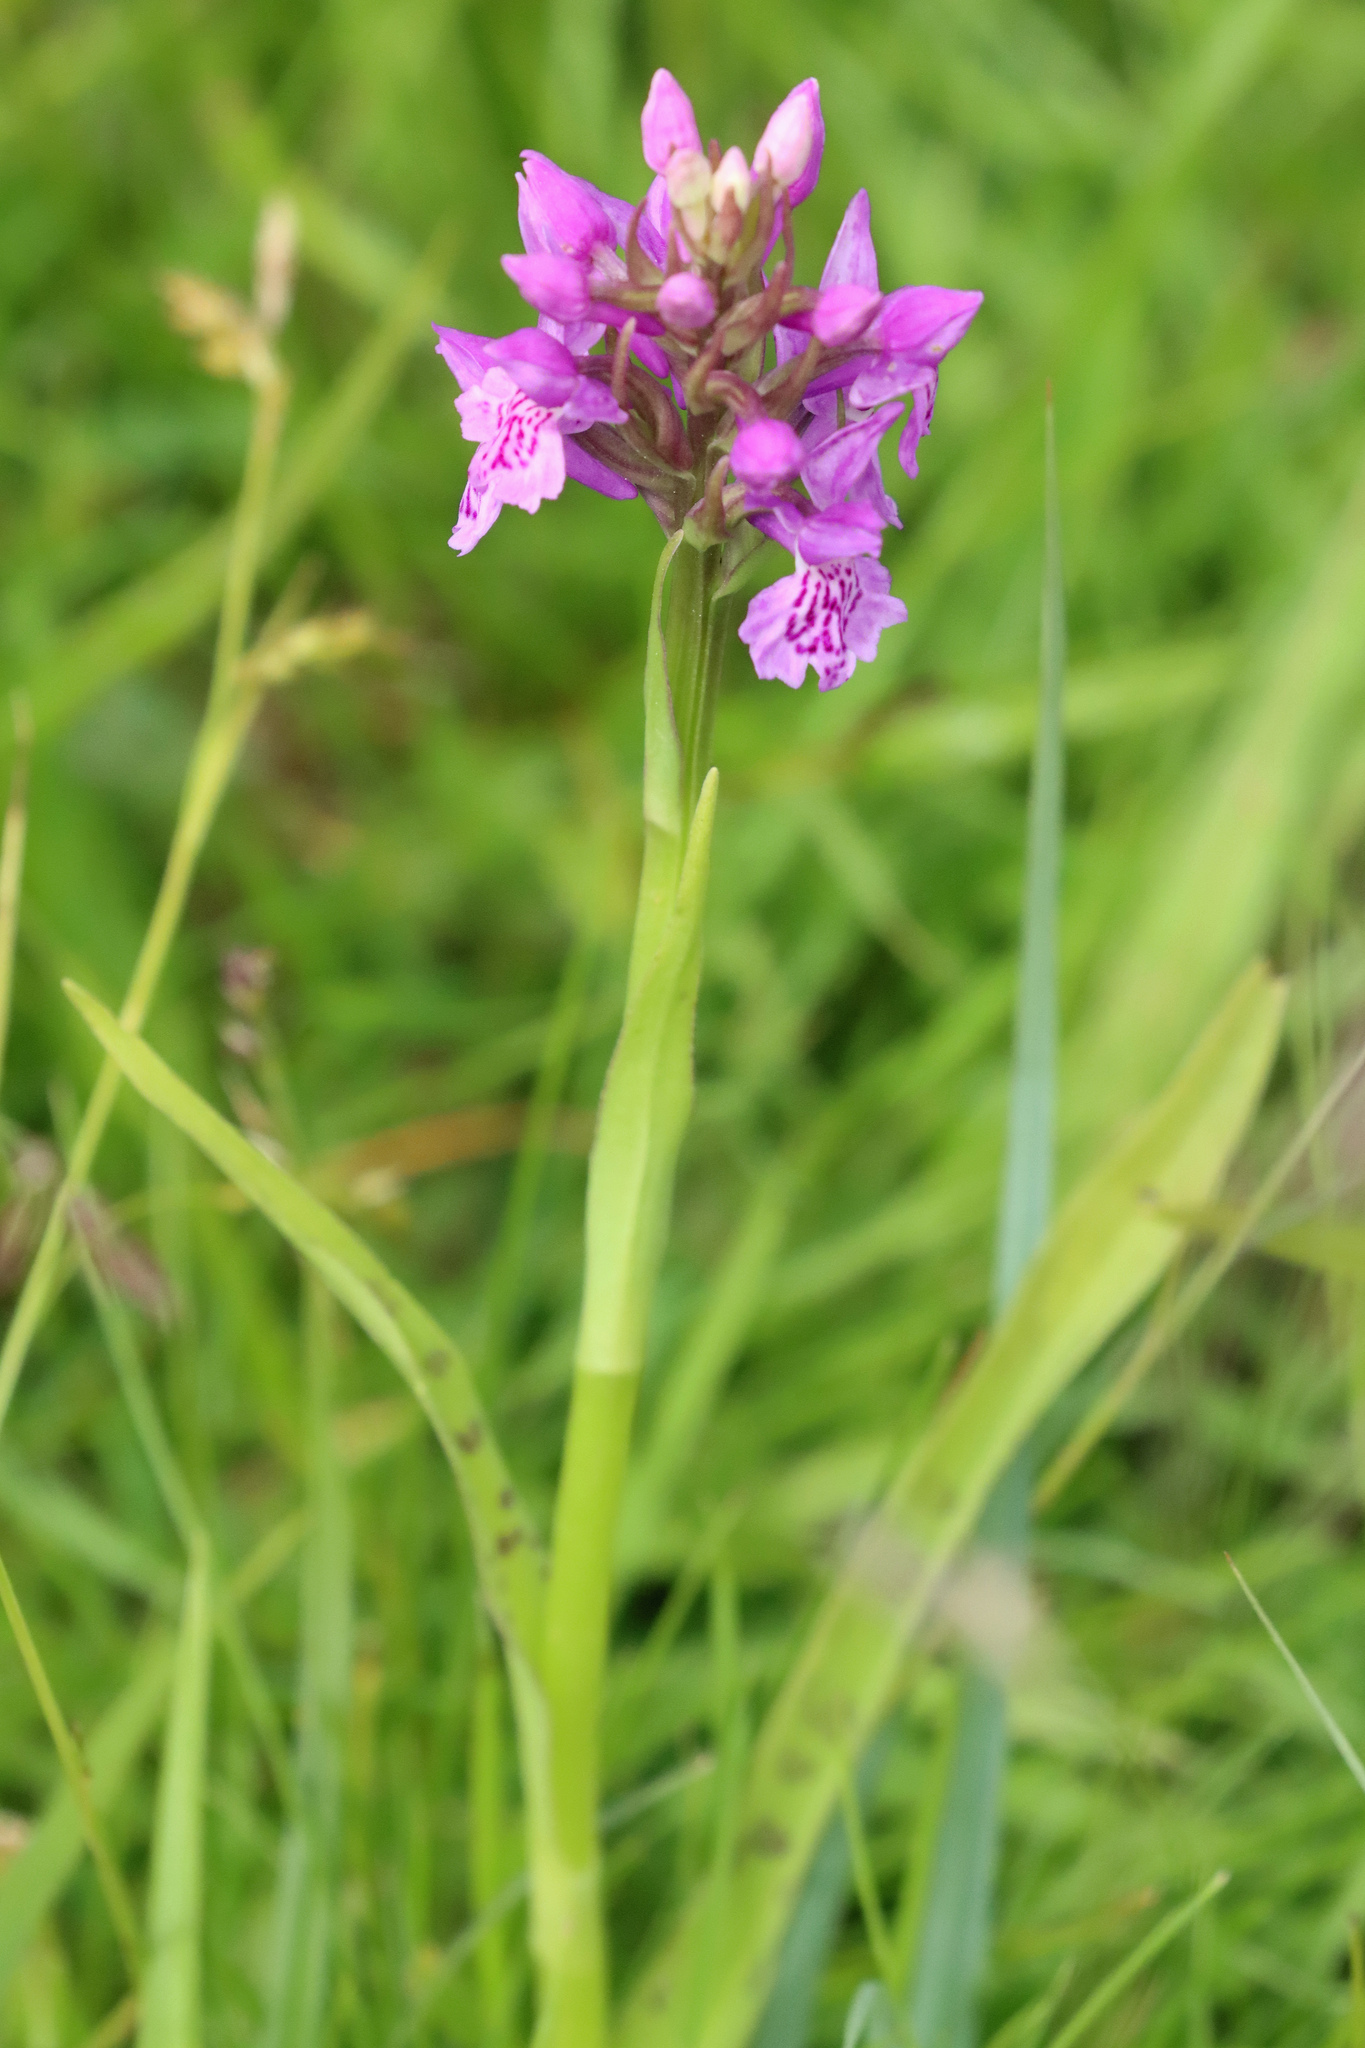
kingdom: Plantae
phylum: Tracheophyta
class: Liliopsida
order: Asparagales
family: Orchidaceae
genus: Dactylorhiza
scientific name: Dactylorhiza maculata
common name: Heath spotted-orchid
